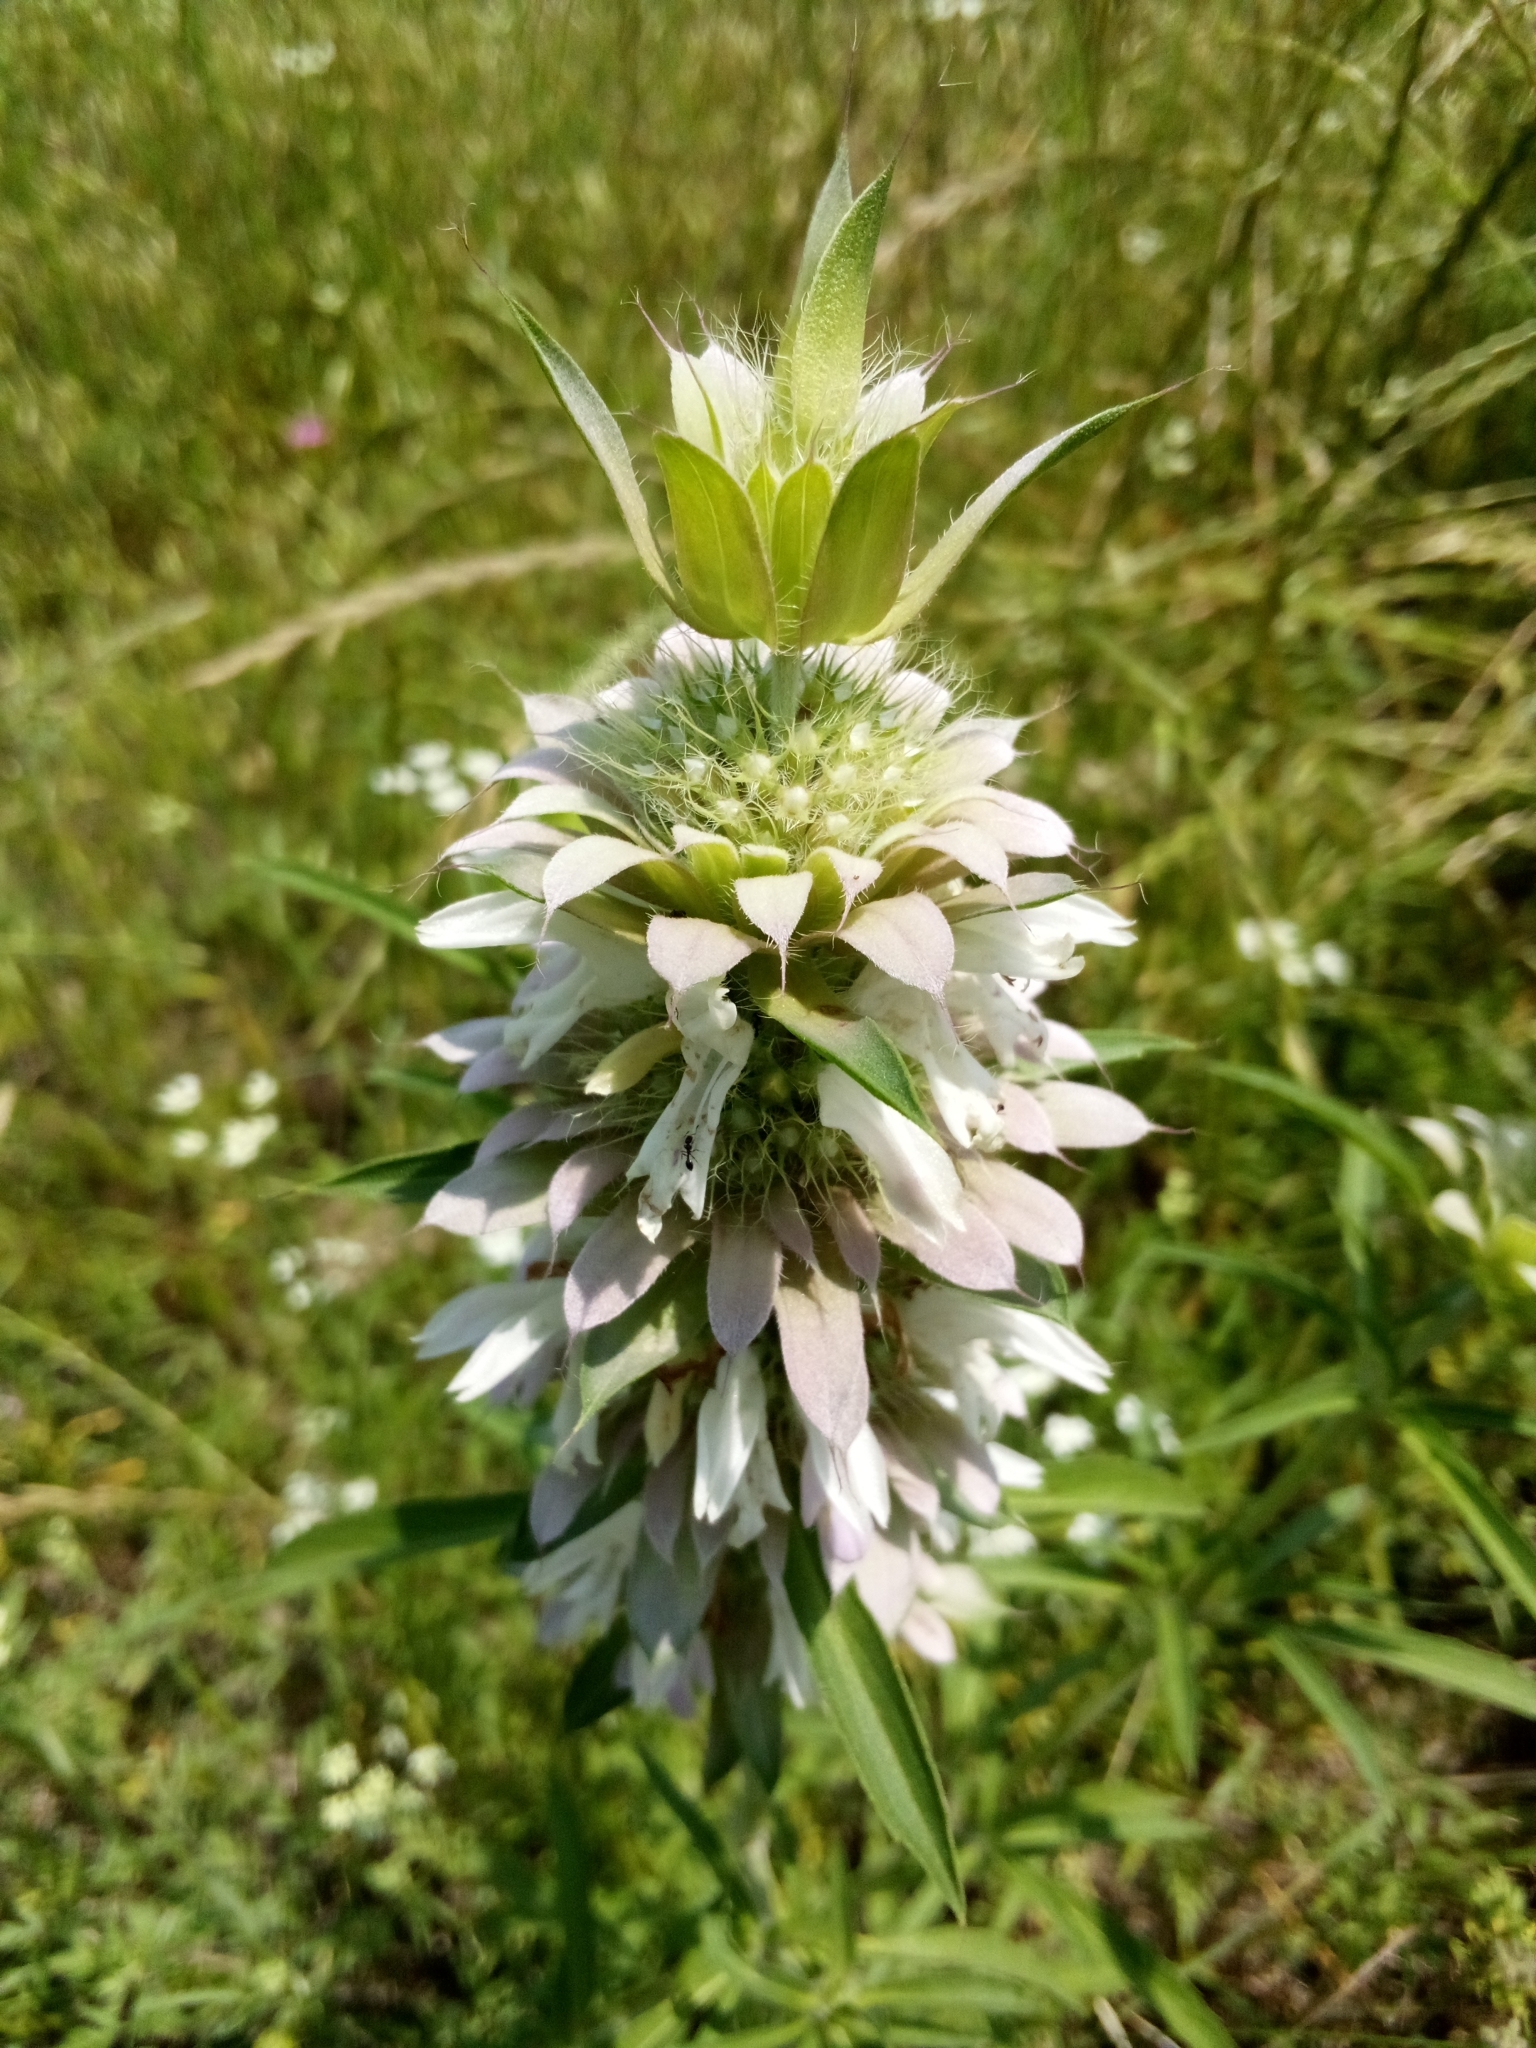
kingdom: Plantae
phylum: Tracheophyta
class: Magnoliopsida
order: Lamiales
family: Lamiaceae
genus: Monarda
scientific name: Monarda citriodora
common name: Lemon beebalm
